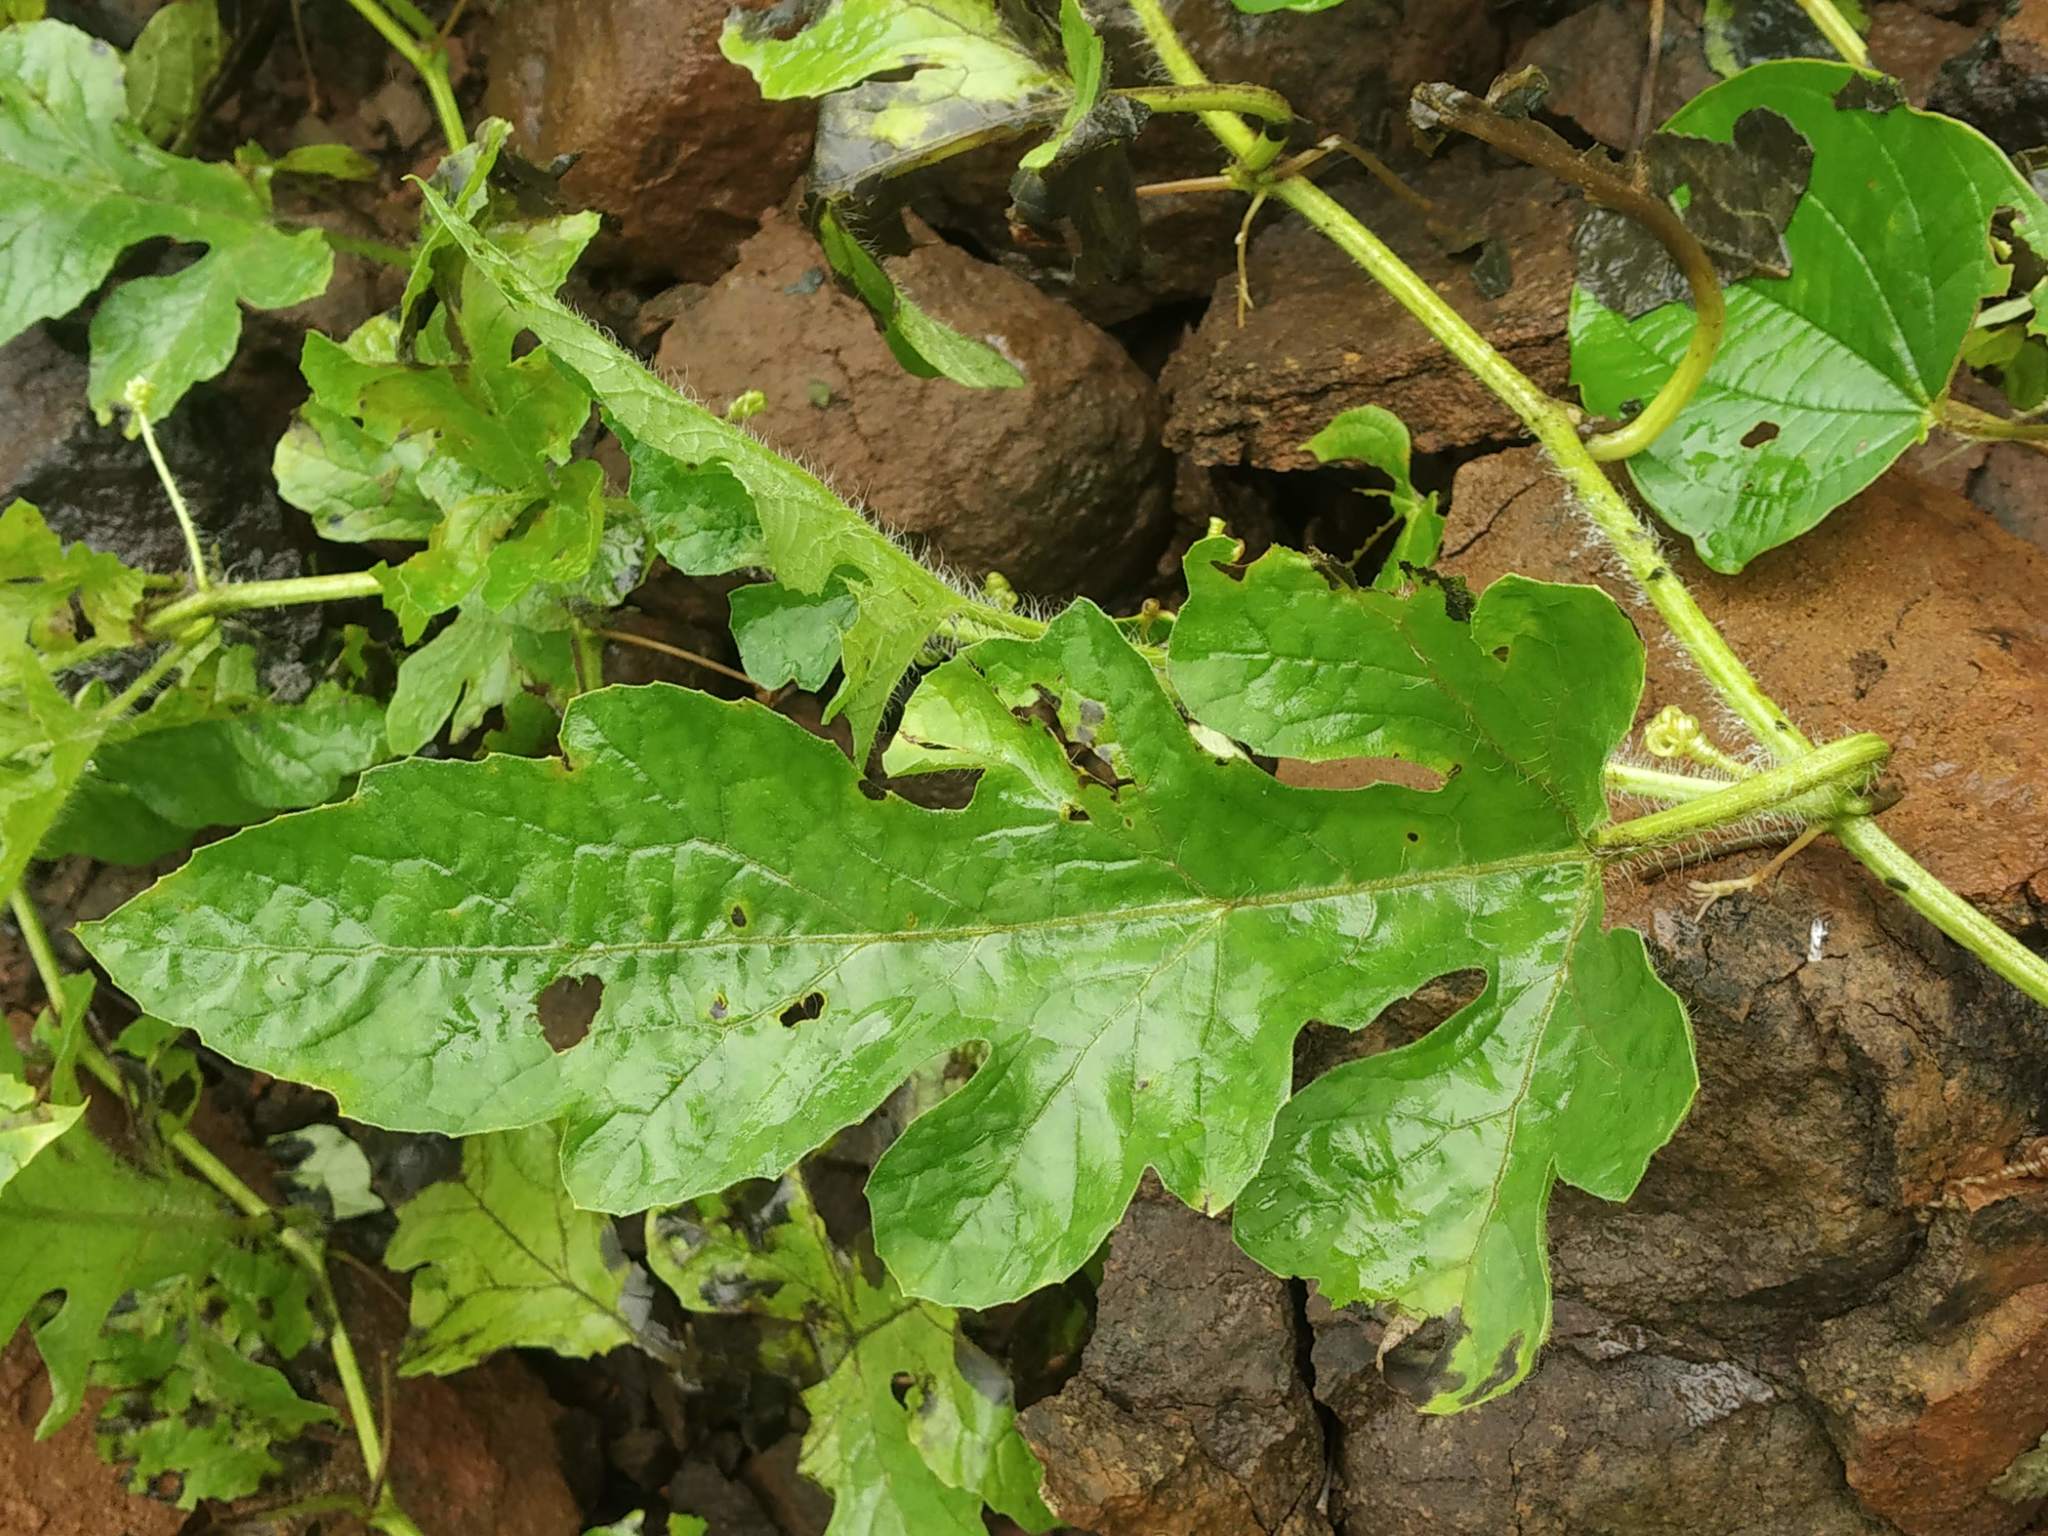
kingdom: Plantae
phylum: Tracheophyta
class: Magnoliopsida
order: Cucurbitales
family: Cucurbitaceae
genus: Citrullus
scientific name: Citrullus lanatus
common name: Watermelon
